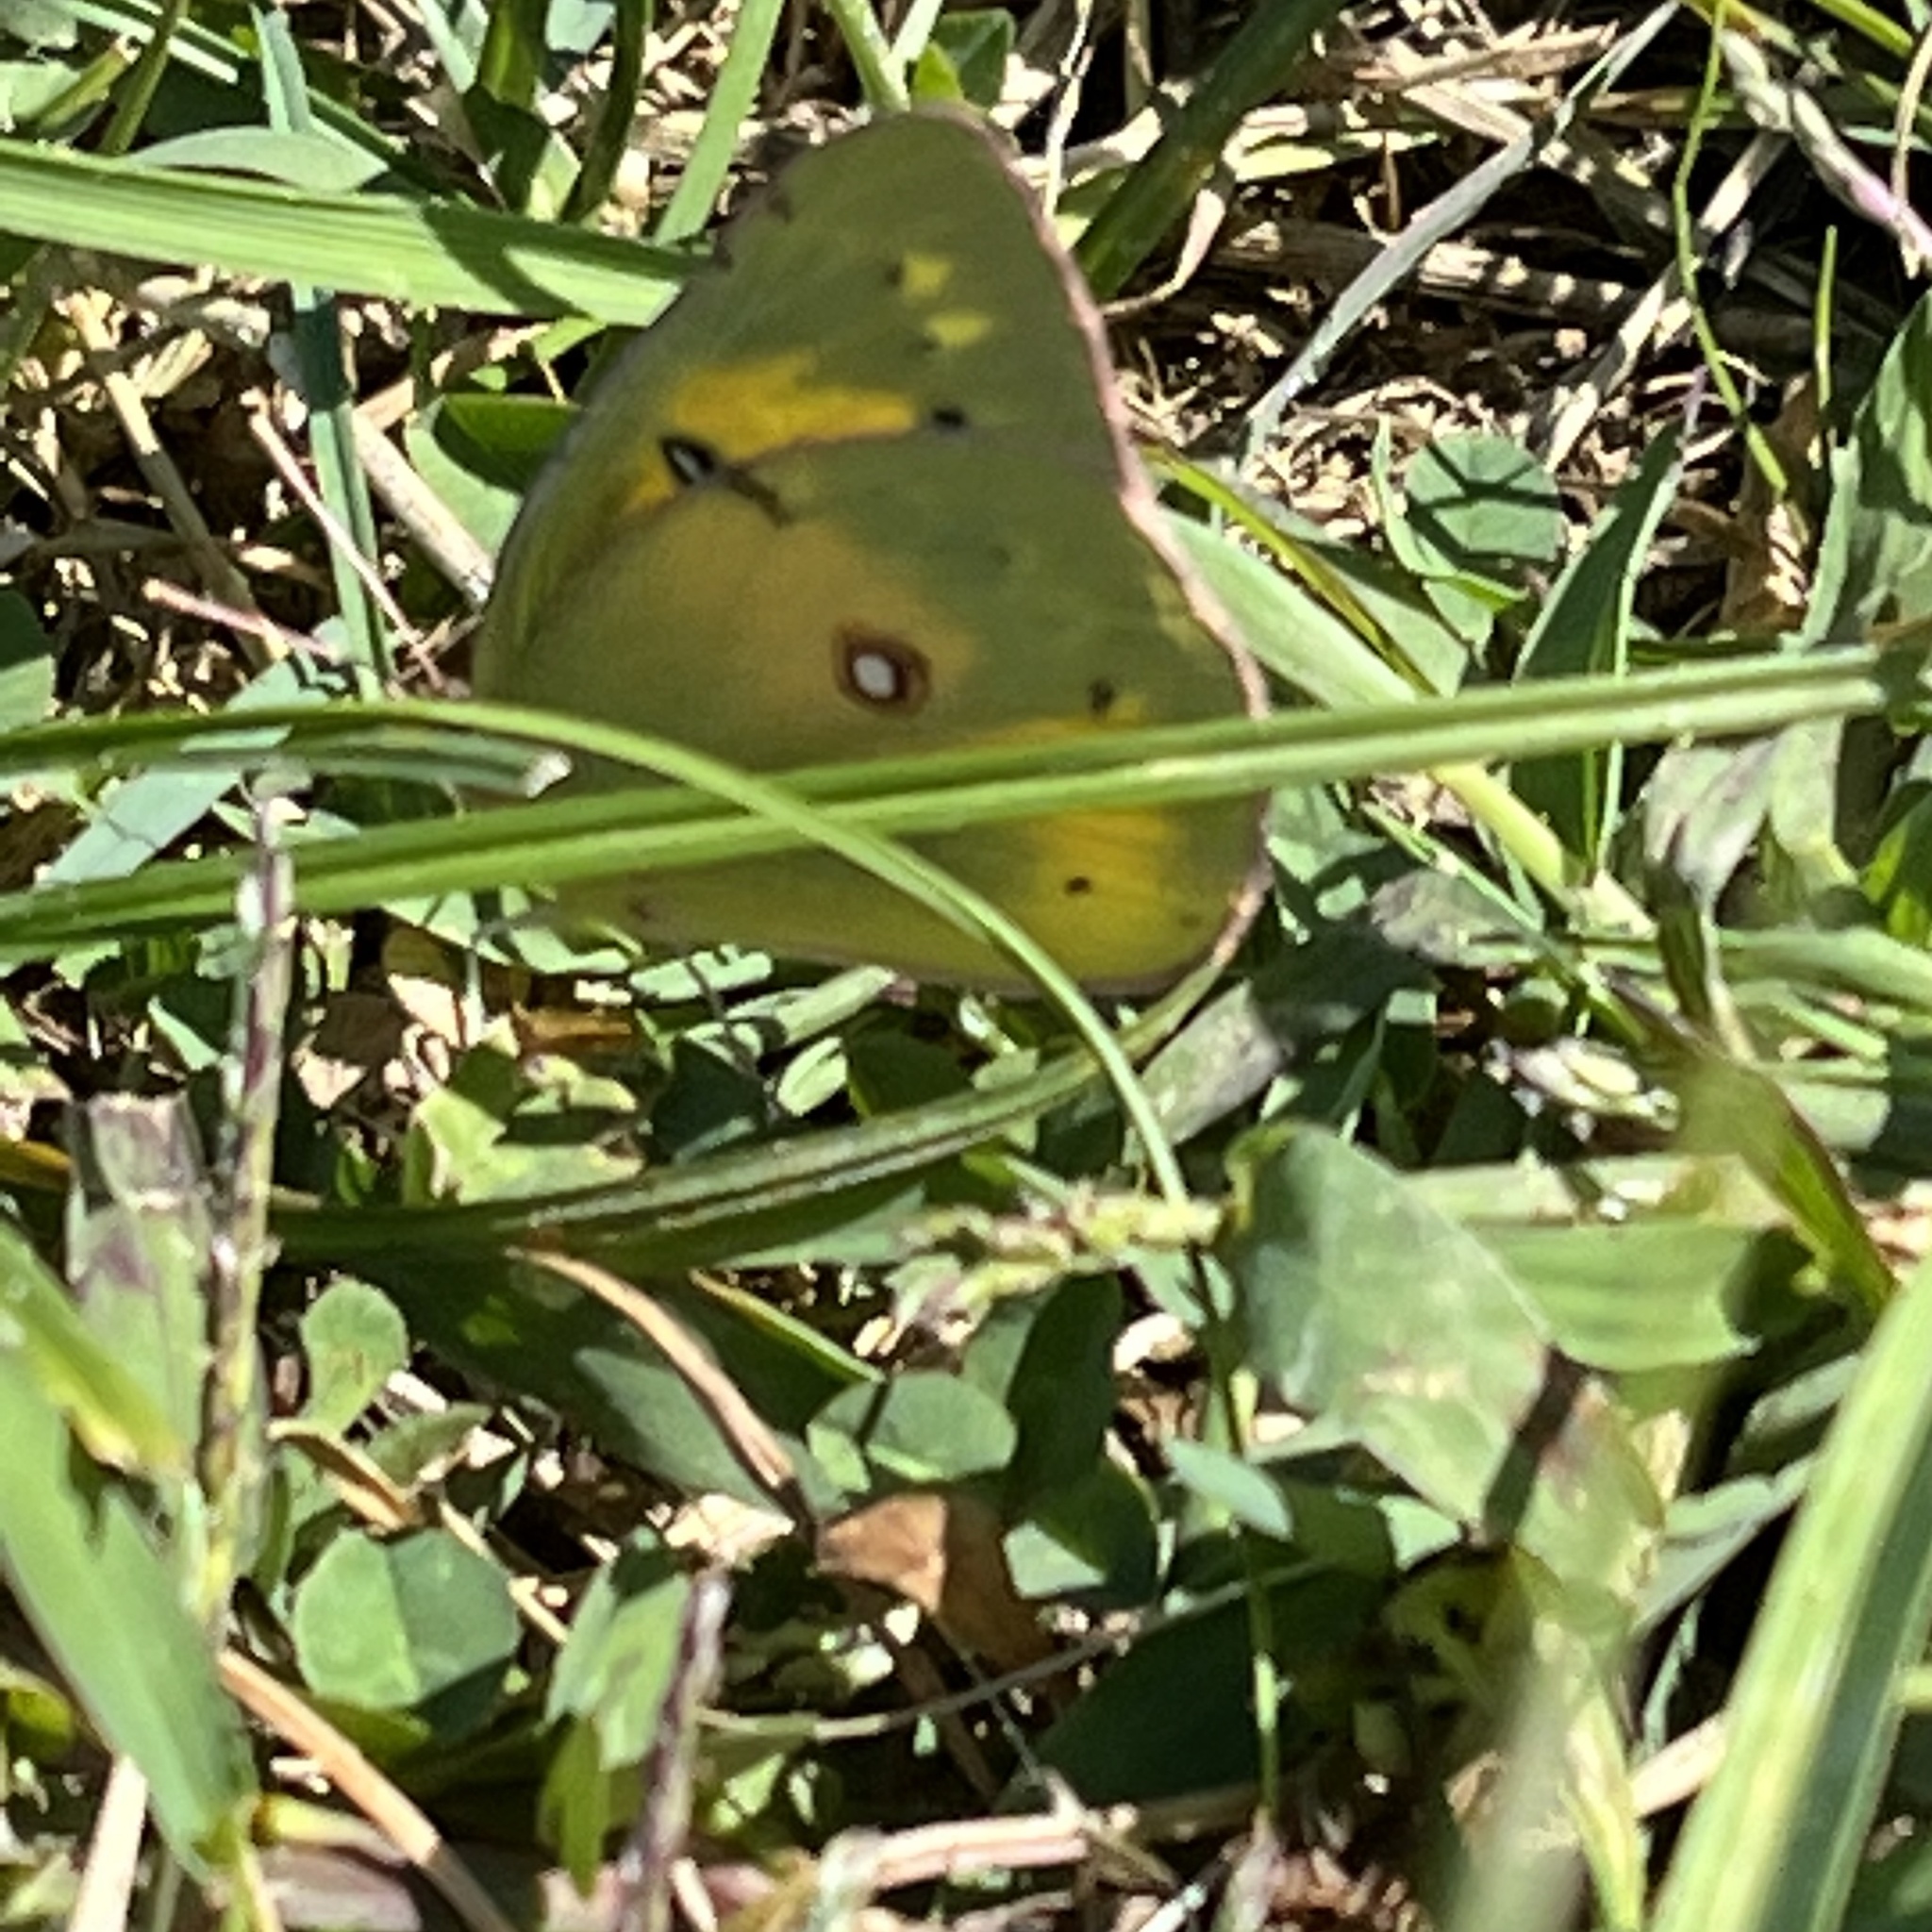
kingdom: Animalia
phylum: Arthropoda
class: Insecta
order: Lepidoptera
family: Pieridae
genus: Colias
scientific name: Colias eurytheme
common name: Alfalfa butterfly
